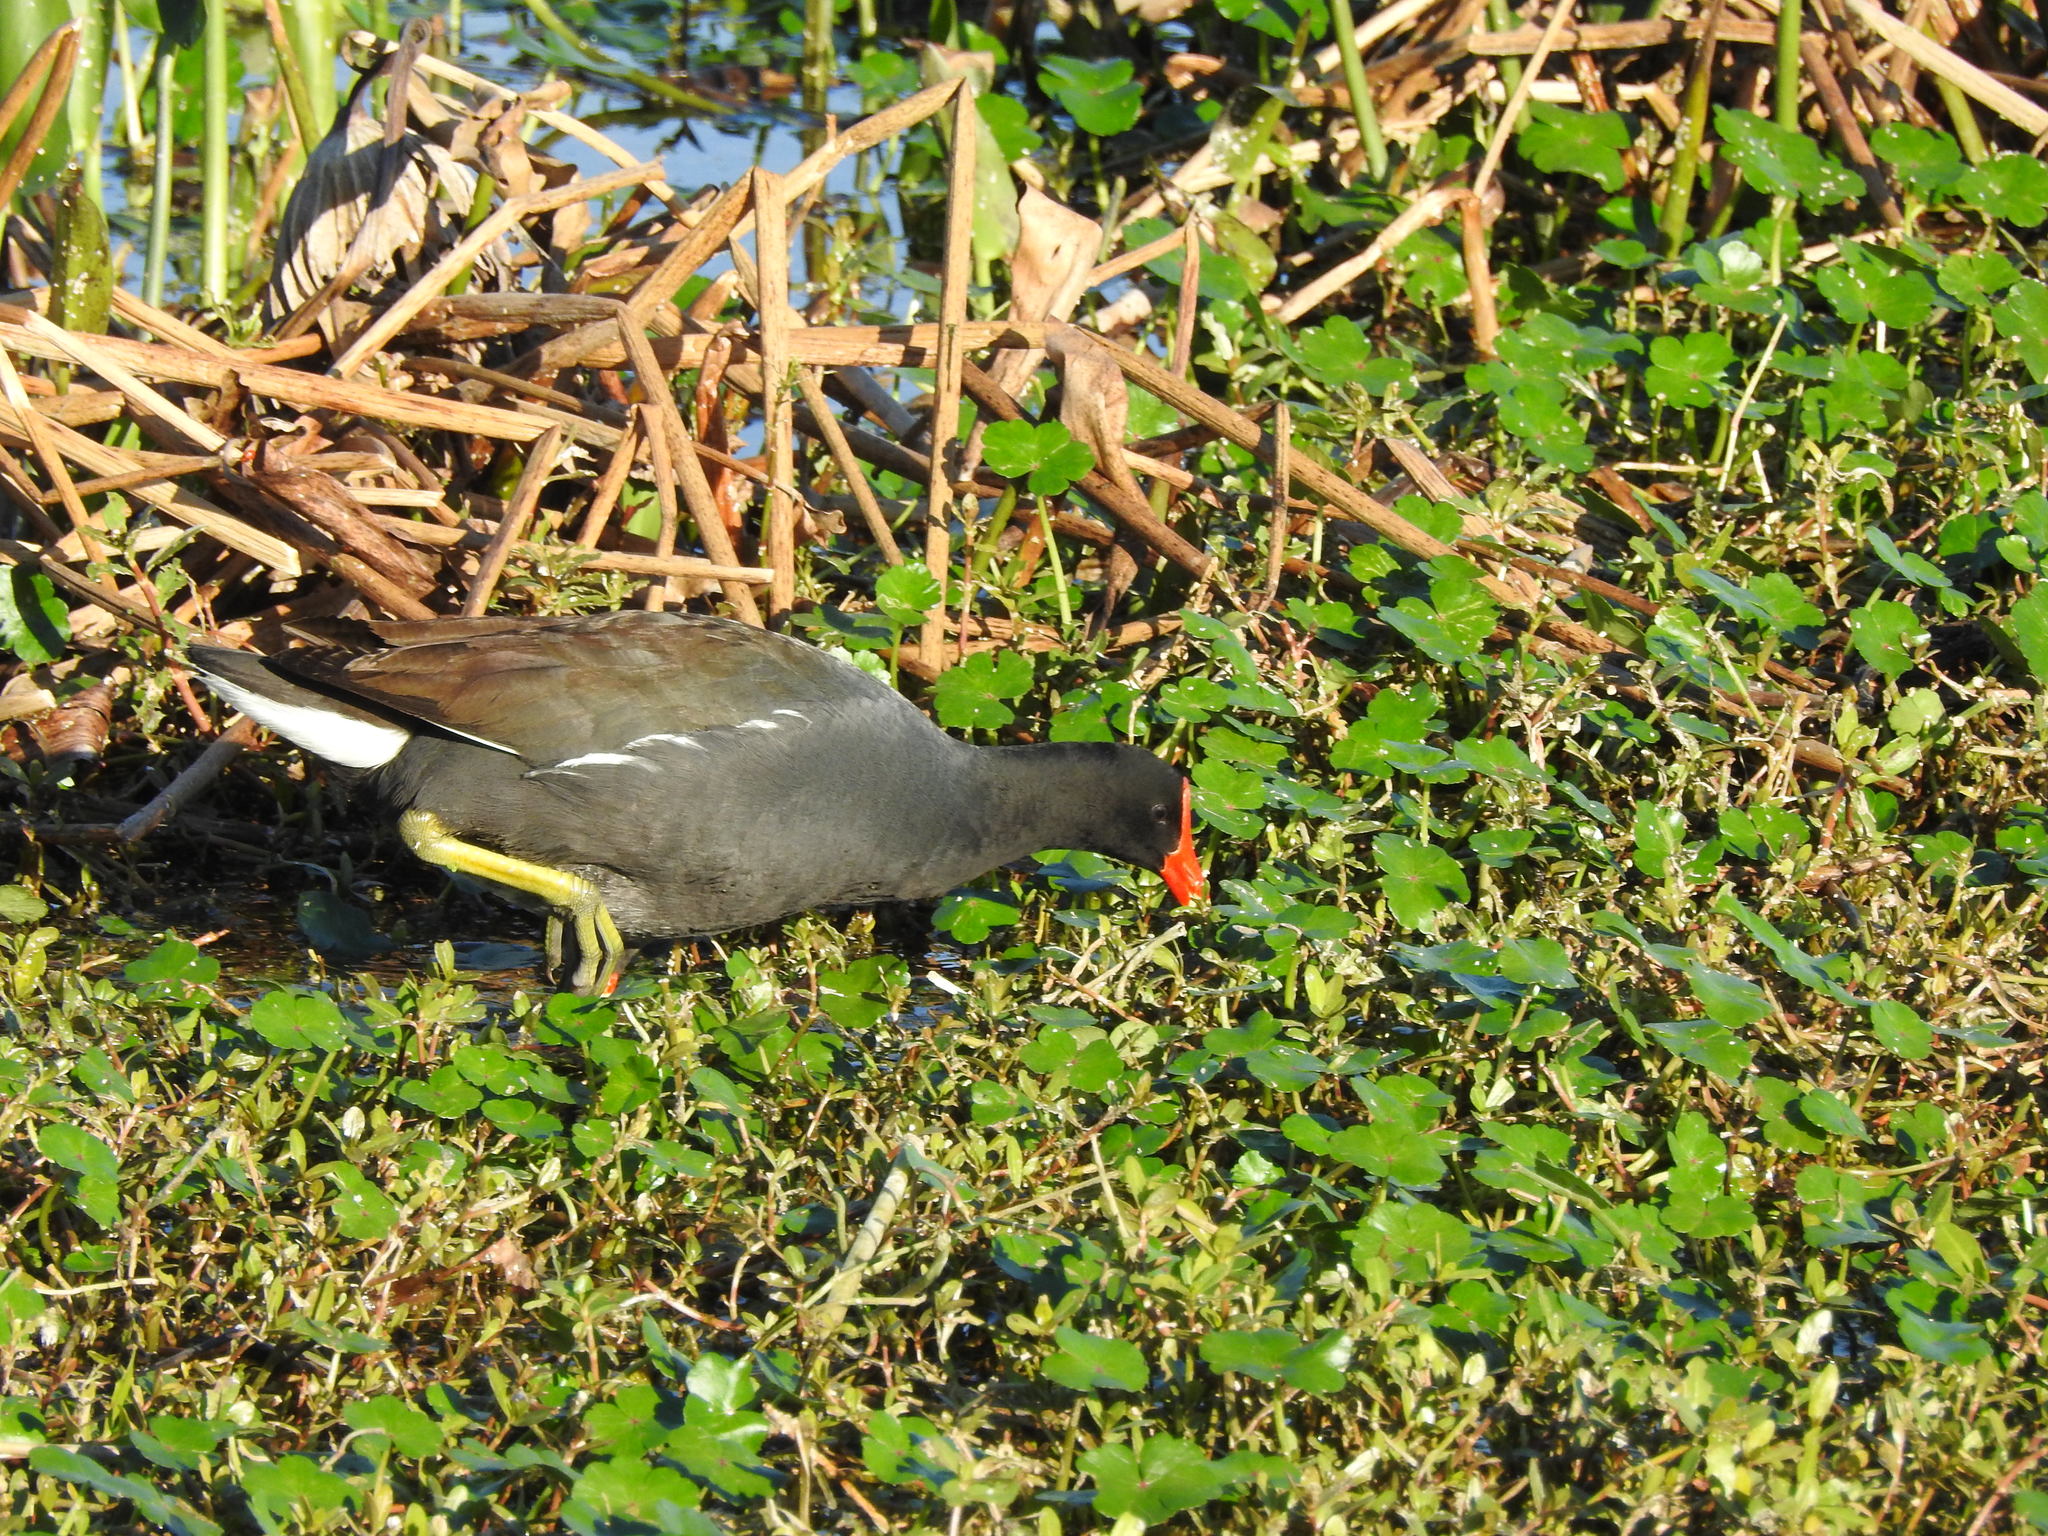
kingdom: Animalia
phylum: Chordata
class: Aves
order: Gruiformes
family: Rallidae
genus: Gallinula
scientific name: Gallinula chloropus
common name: Common moorhen
